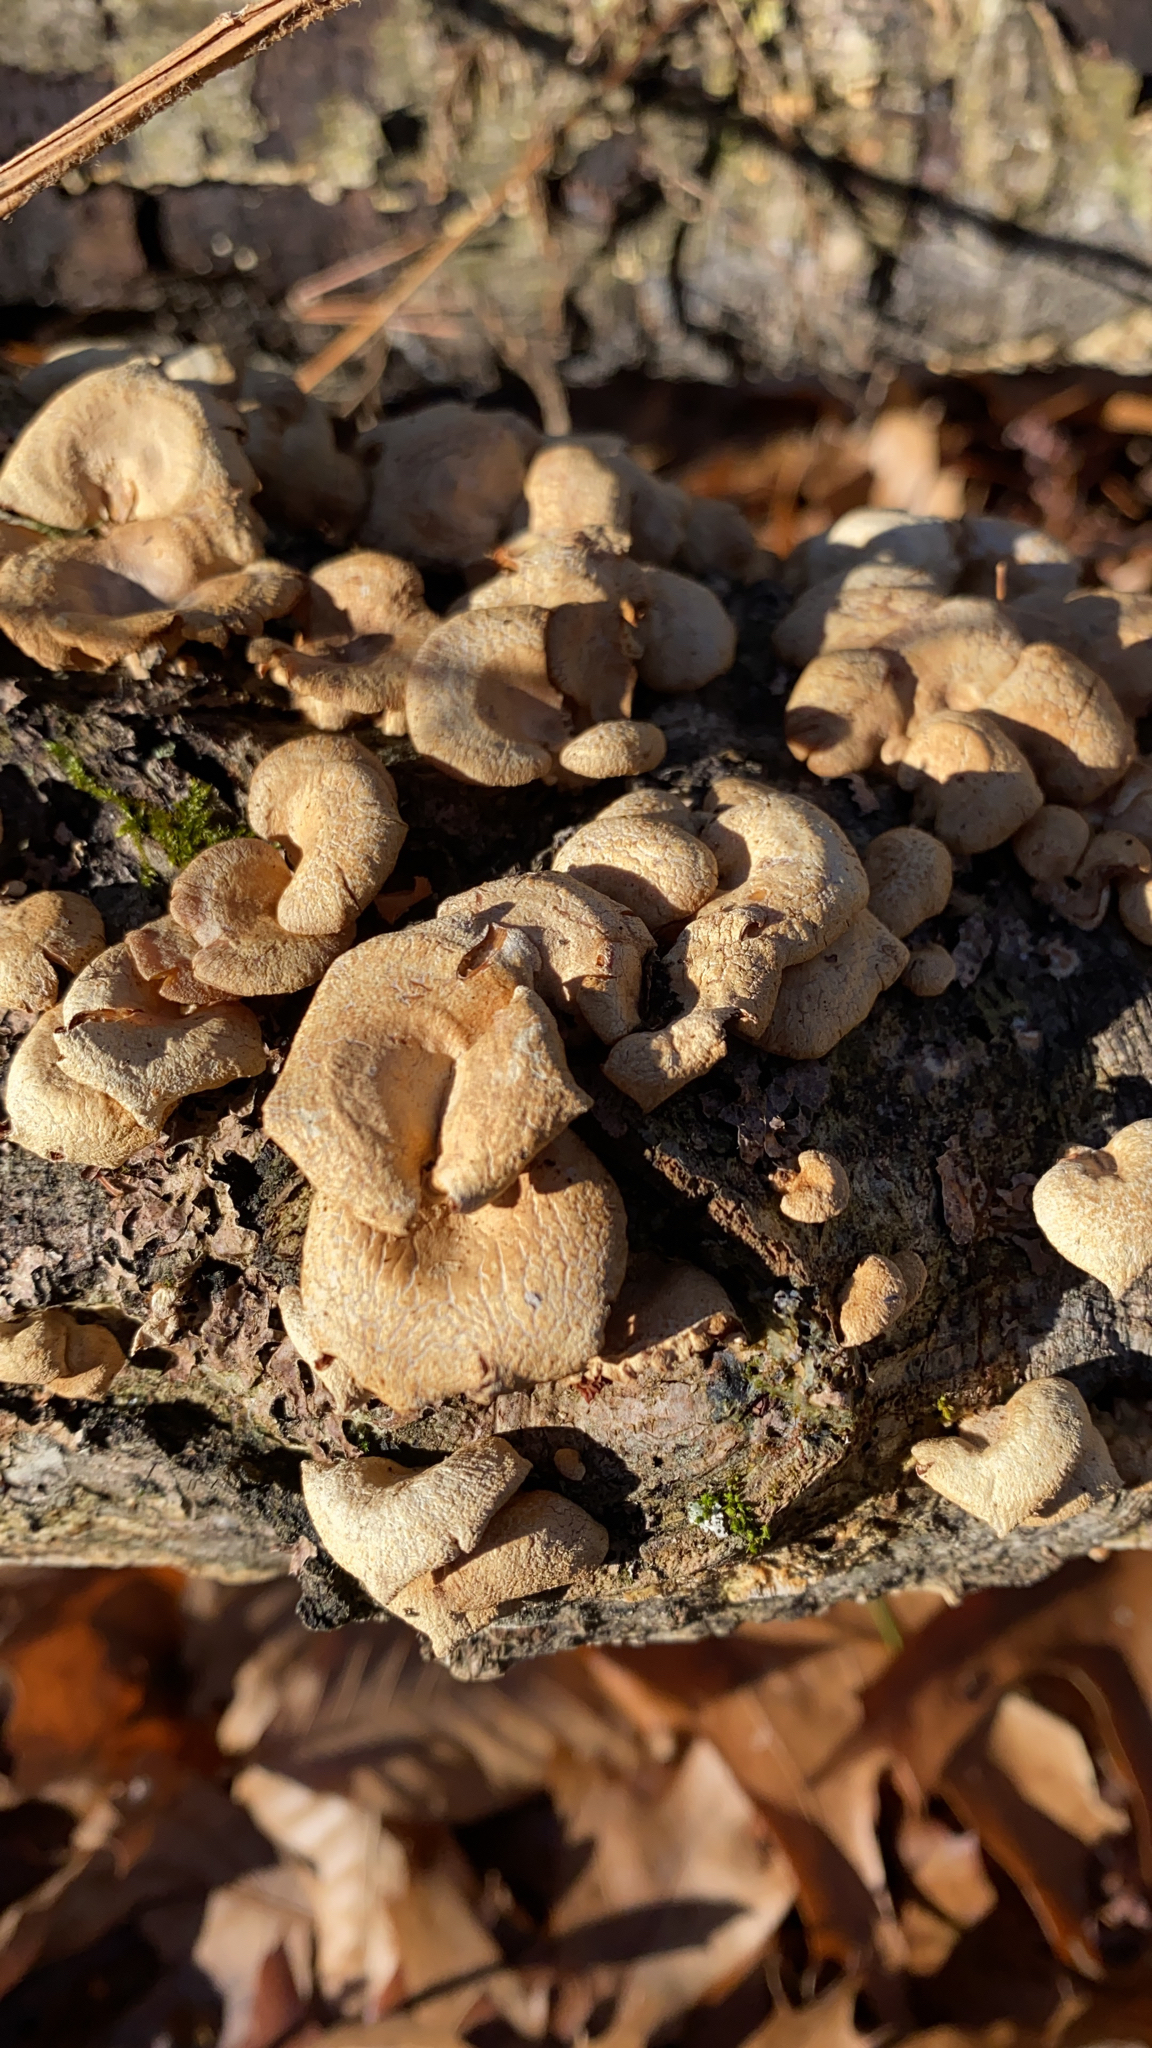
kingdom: Fungi
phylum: Basidiomycota
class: Agaricomycetes
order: Agaricales
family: Mycenaceae
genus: Panellus
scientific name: Panellus stipticus
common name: Bitter oysterling
